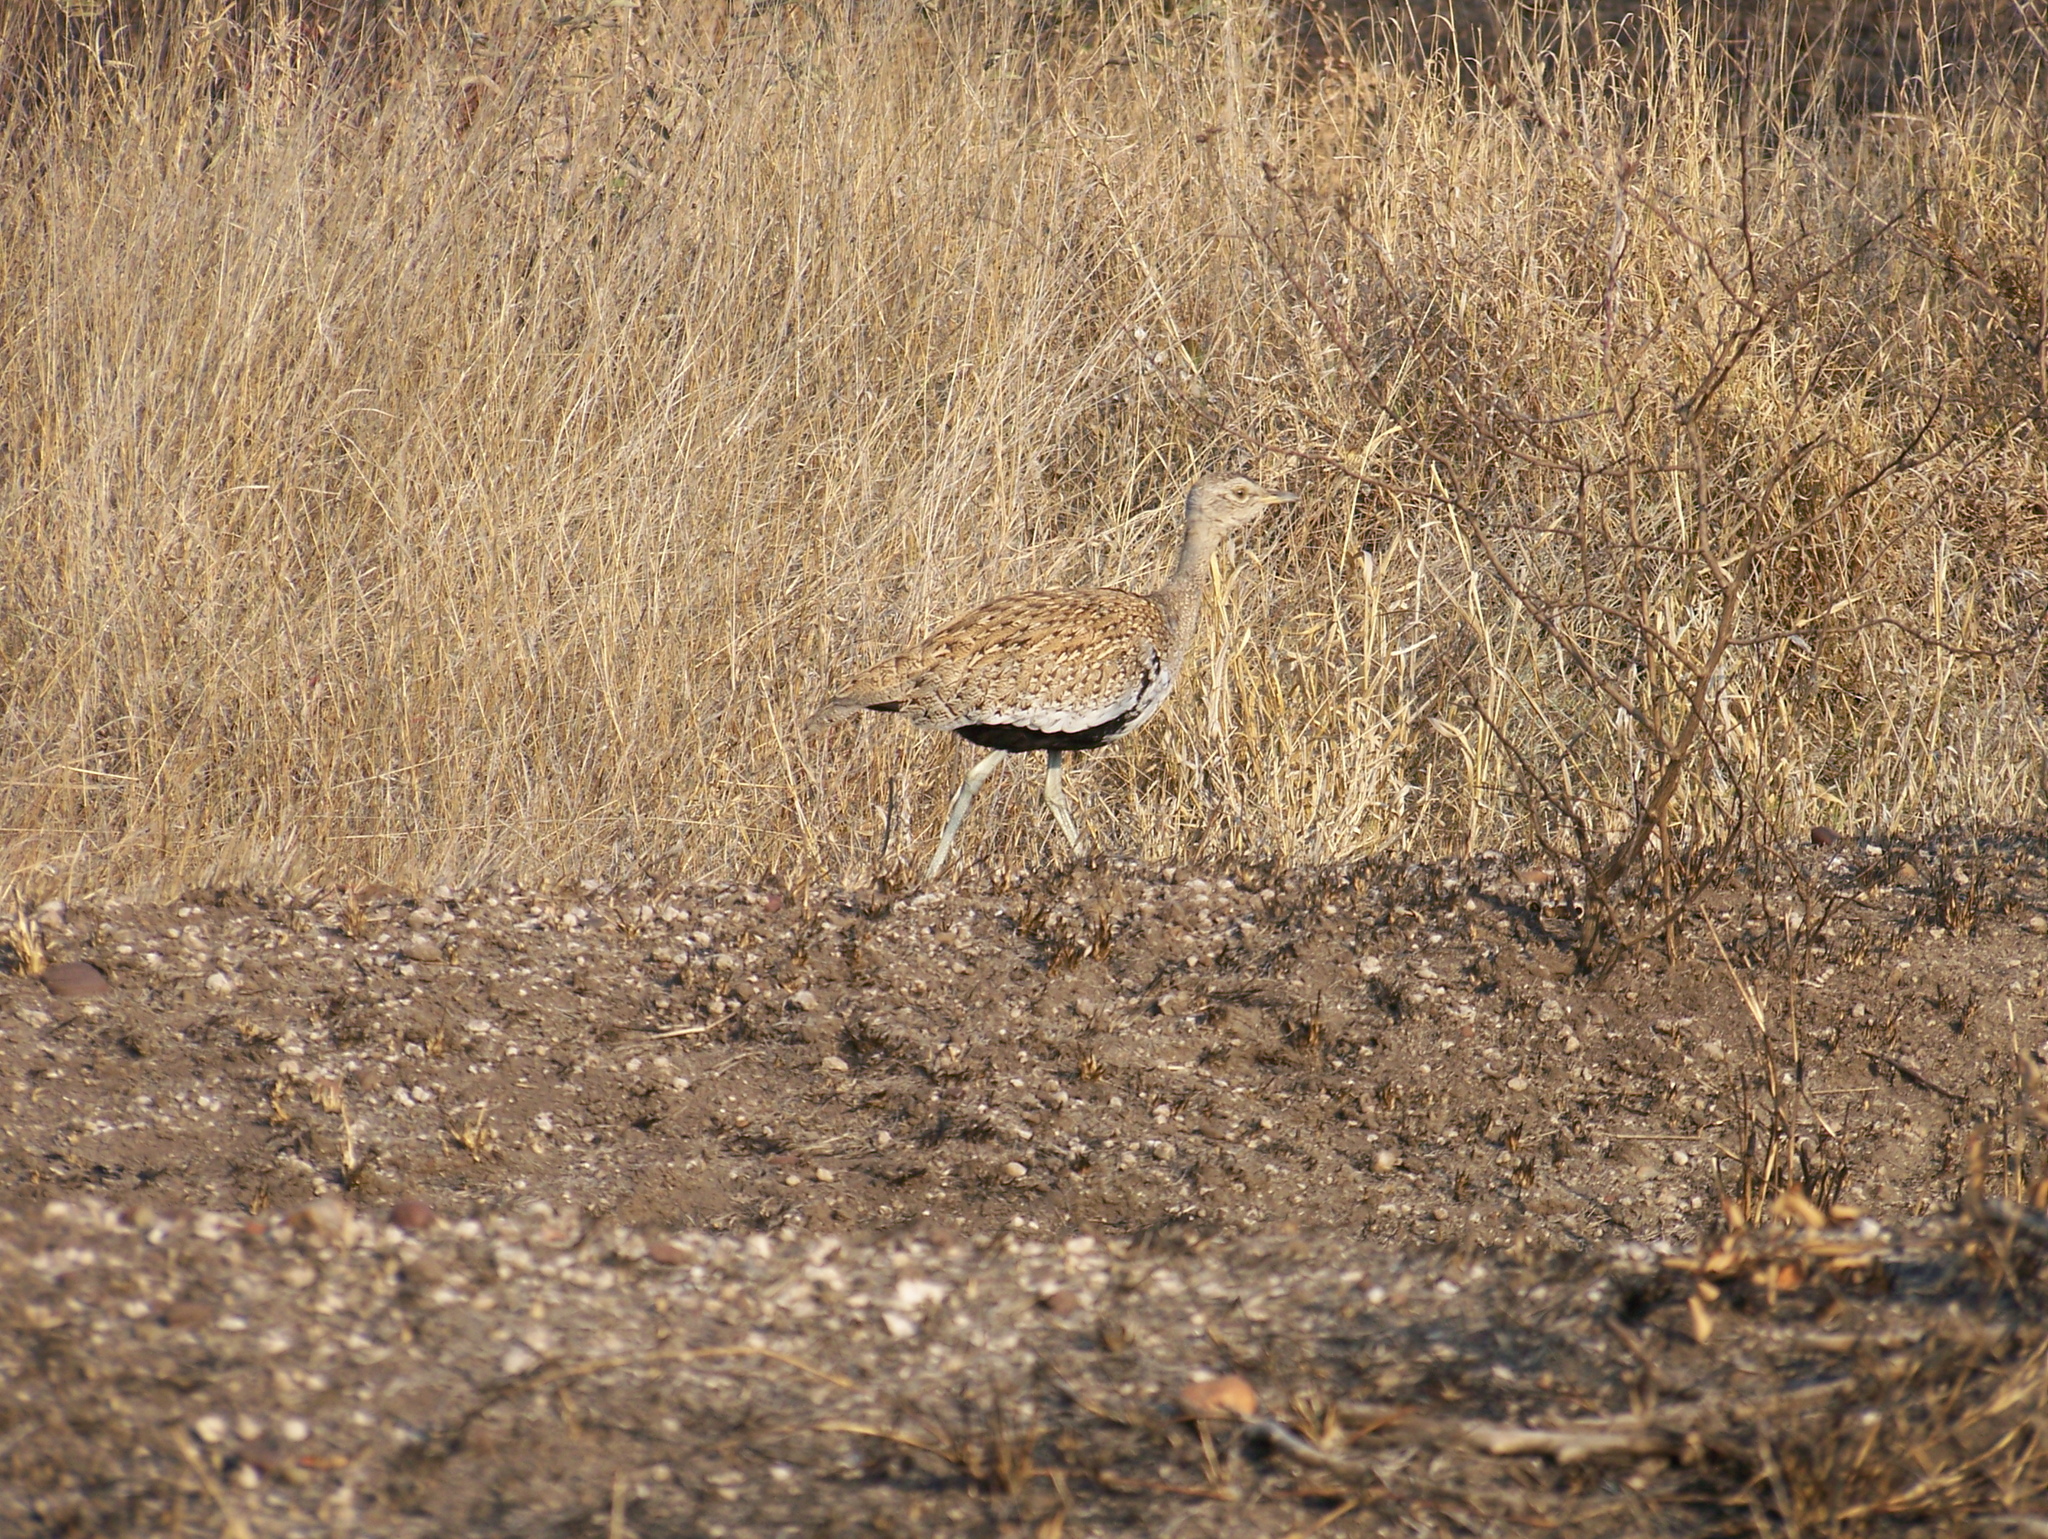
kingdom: Animalia
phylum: Chordata
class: Aves
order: Otidiformes
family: Otididae
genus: Lophotis
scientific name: Lophotis ruficrista
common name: Red-crested korhaan
